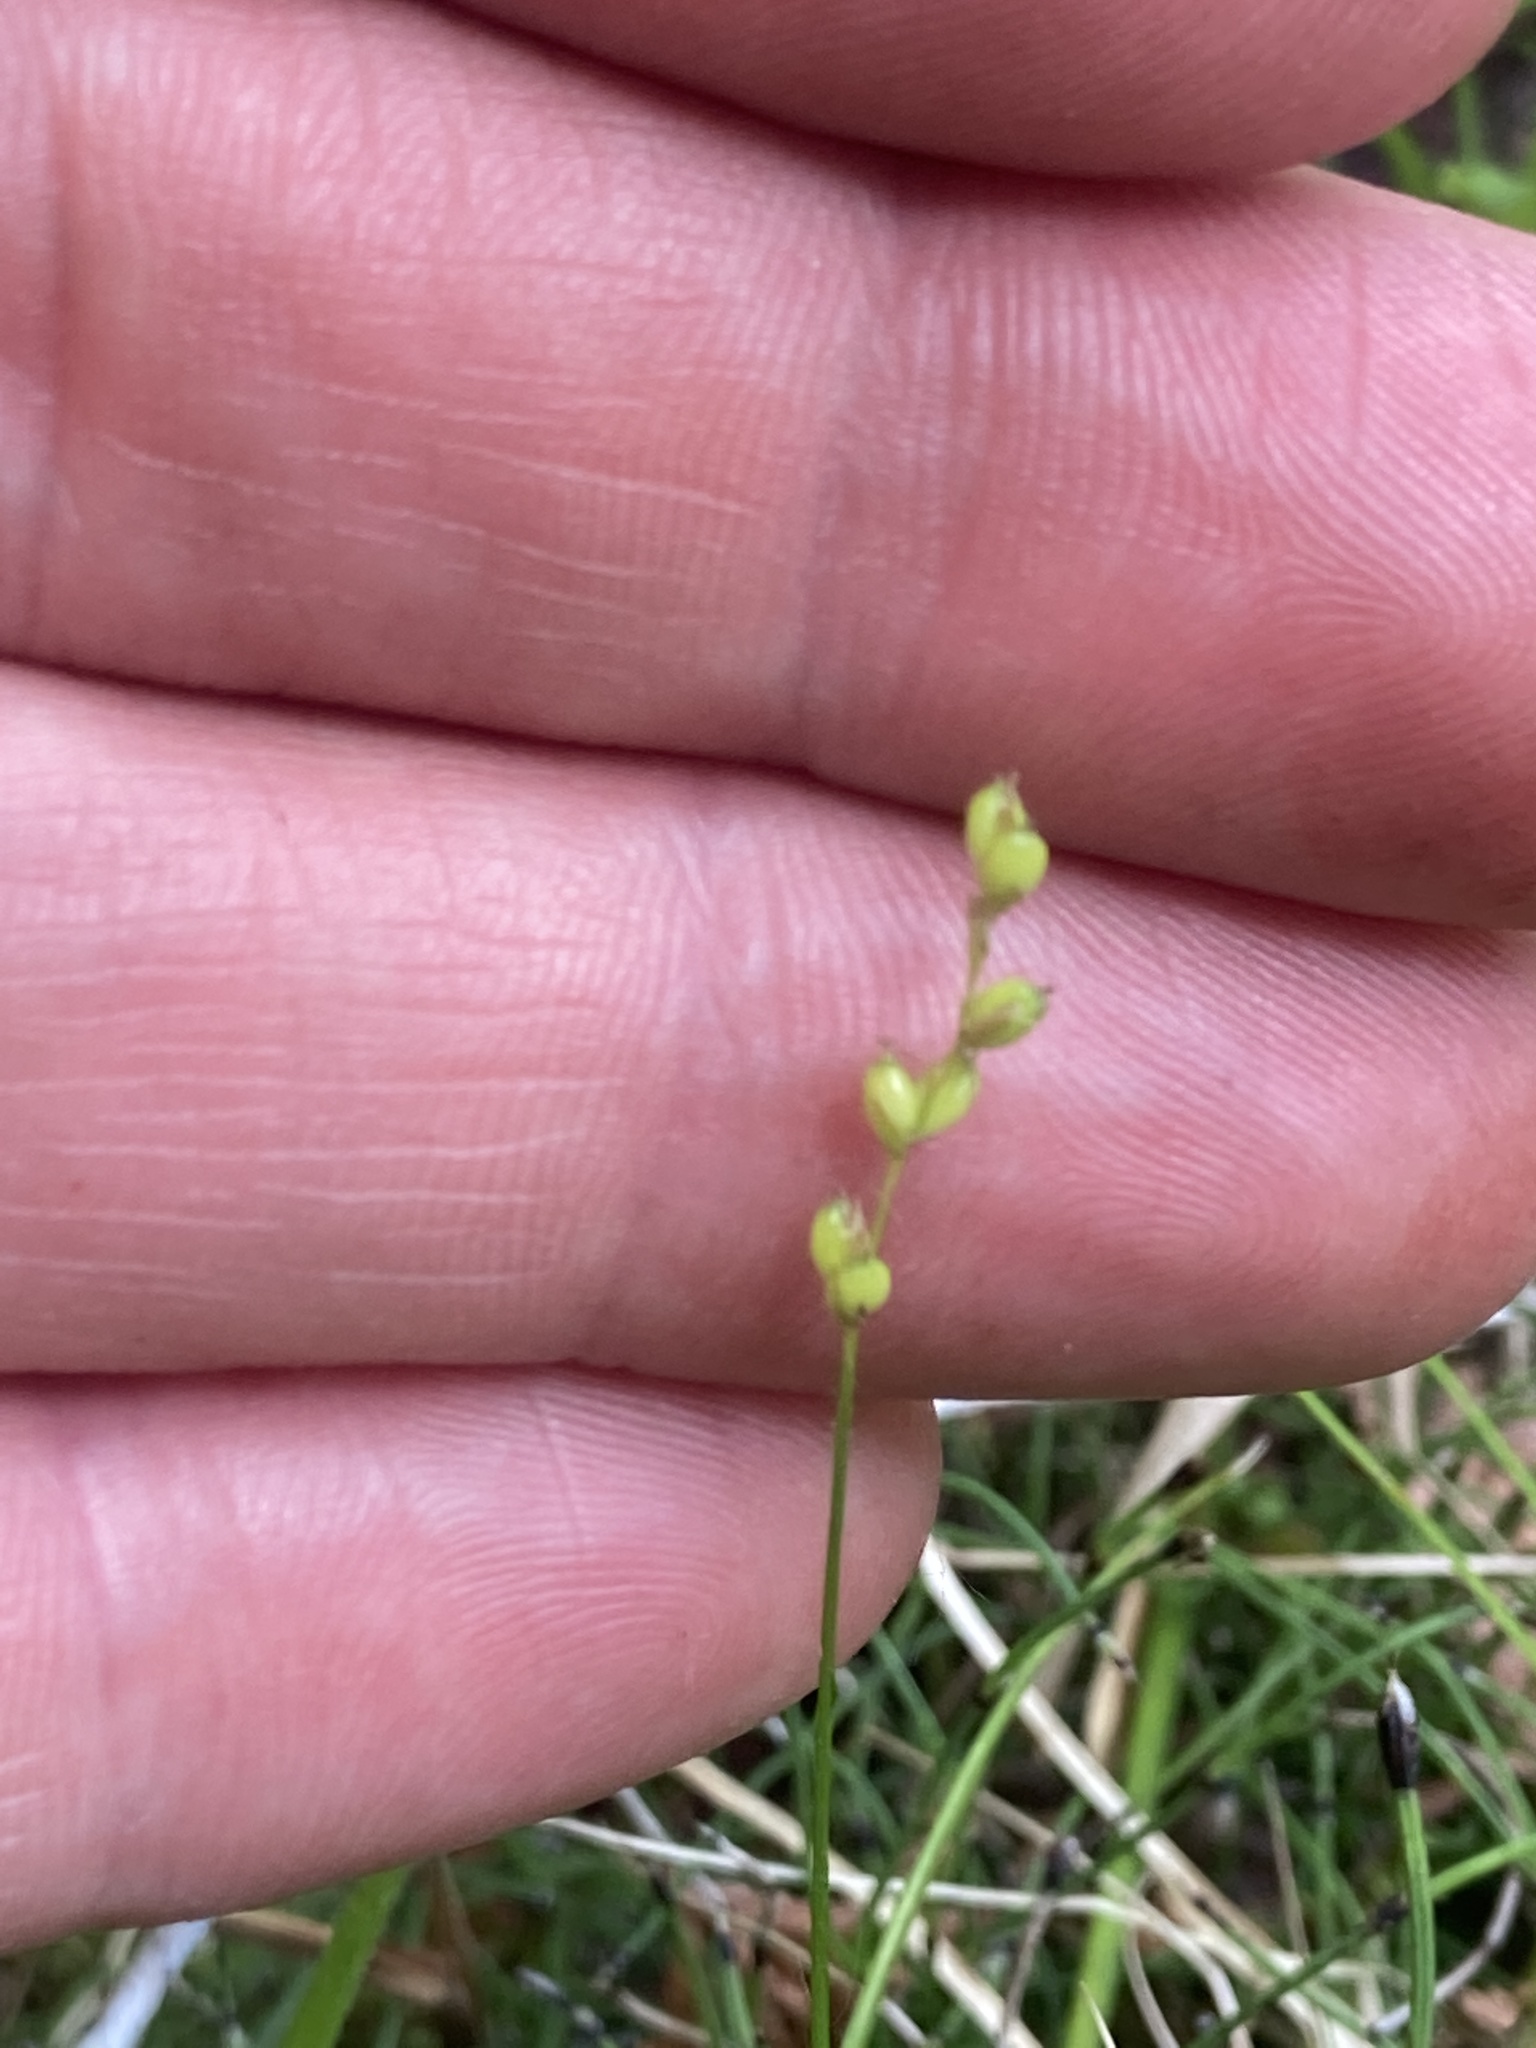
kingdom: Plantae
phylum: Tracheophyta
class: Liliopsida
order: Poales
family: Cyperaceae
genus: Carex
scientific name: Carex disperma
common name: Short-leaved sedge
